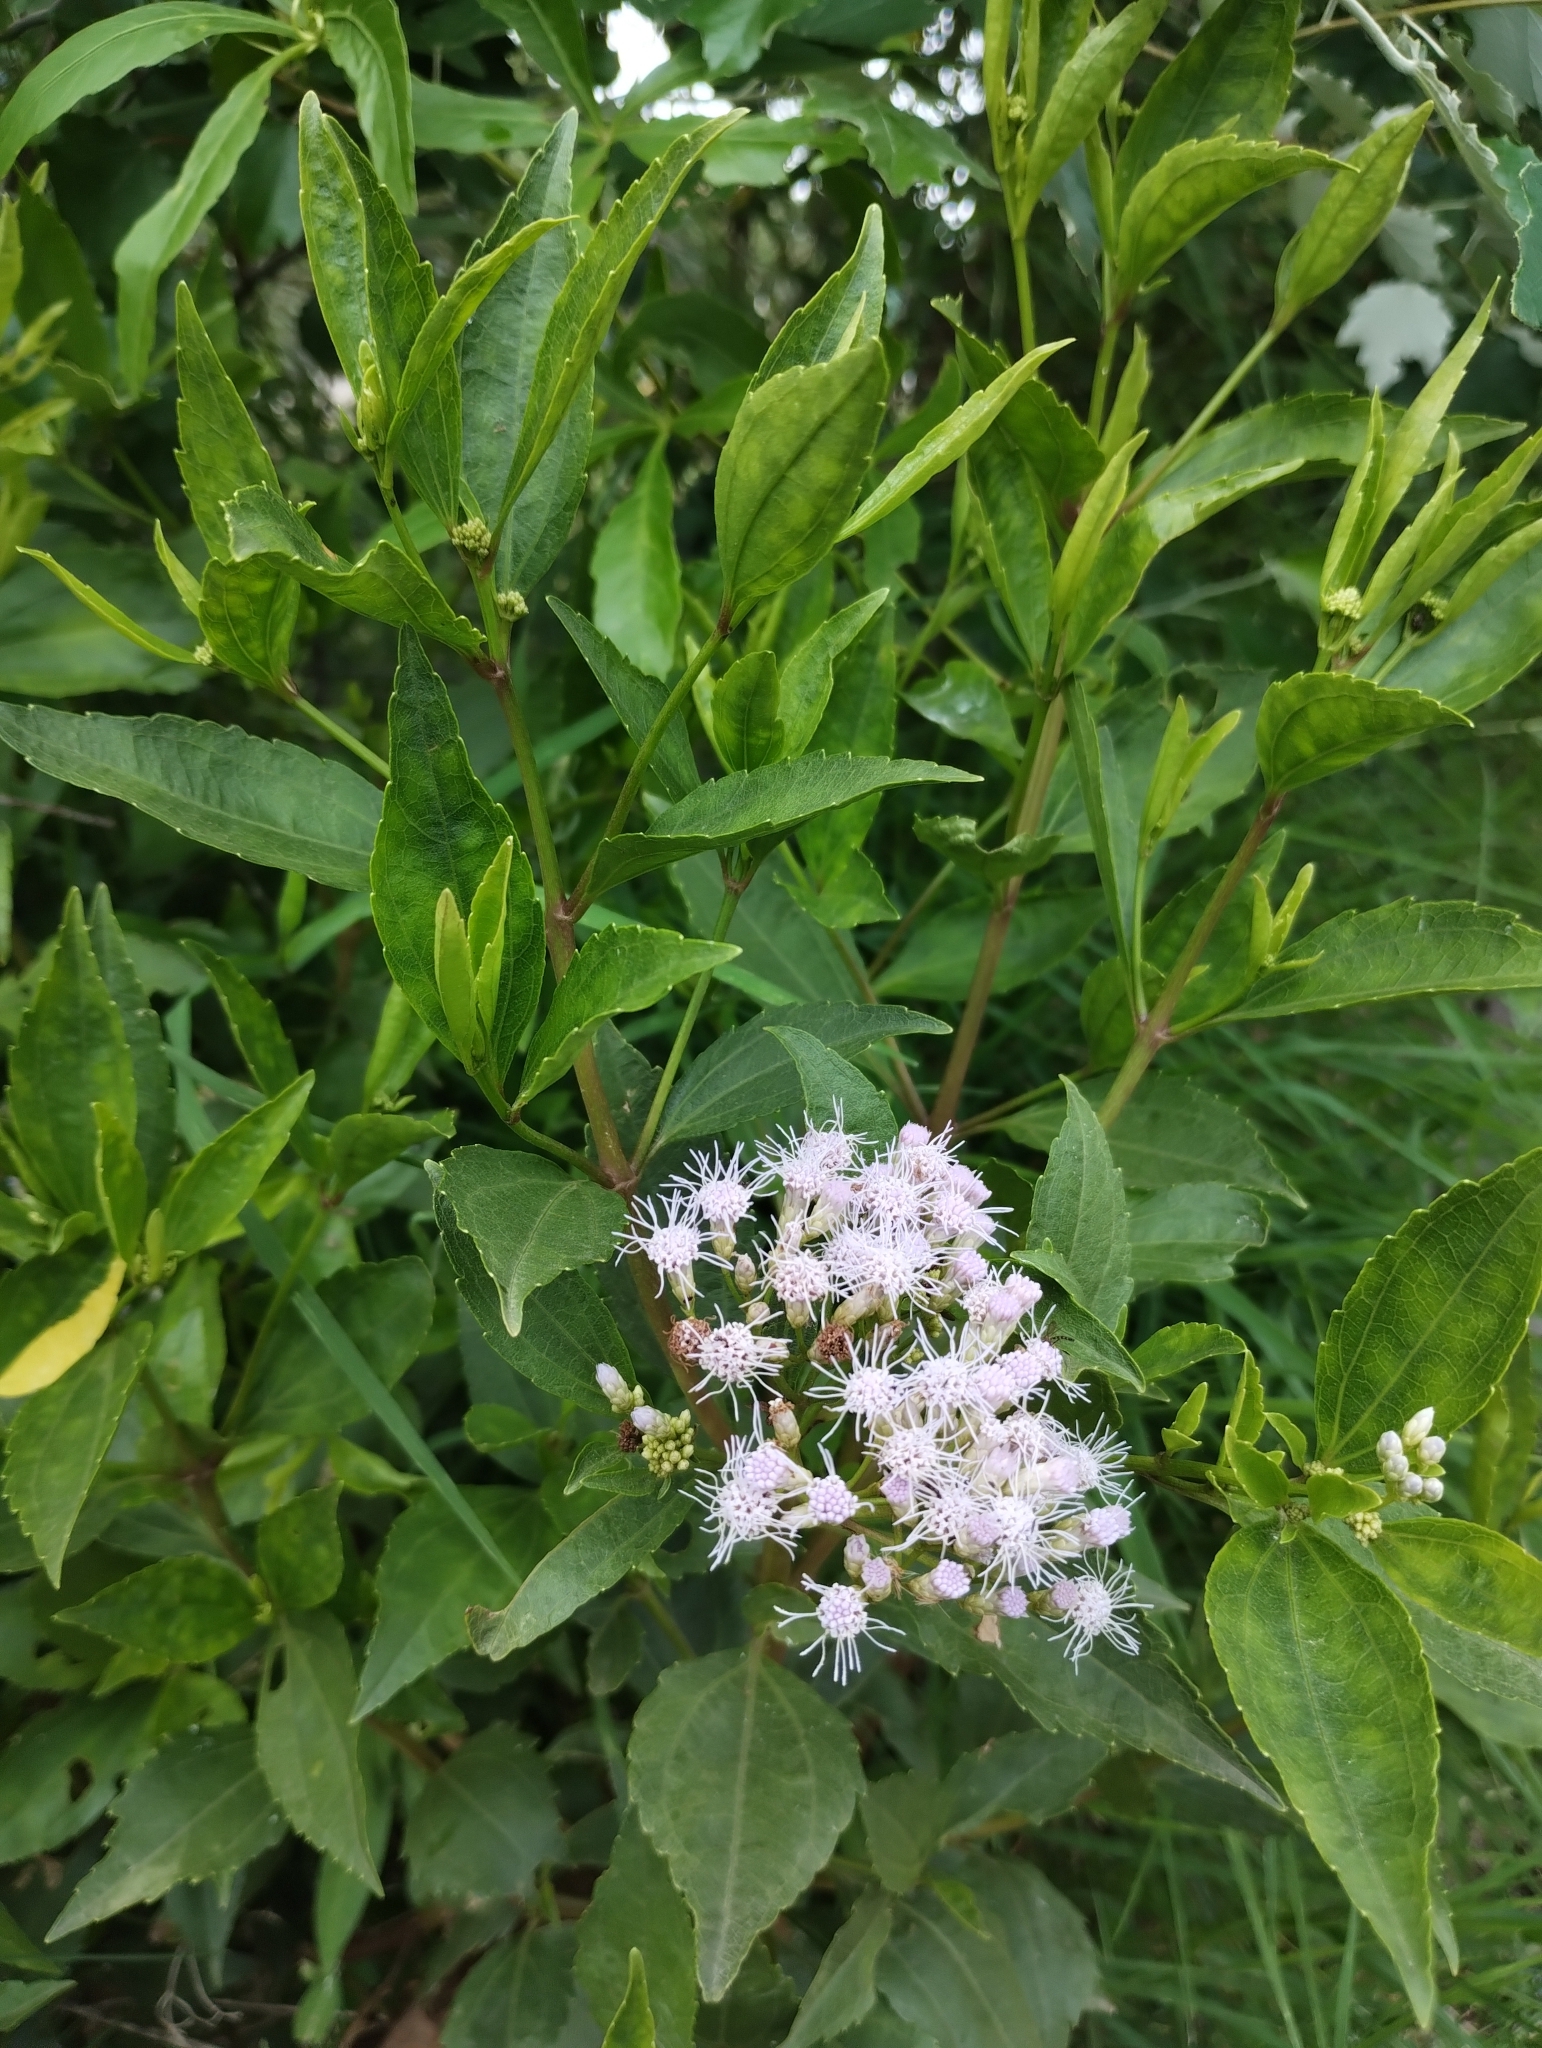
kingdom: Plantae
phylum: Tracheophyta
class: Magnoliopsida
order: Asterales
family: Asteraceae
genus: Chromolaena
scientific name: Chromolaena laevigata
